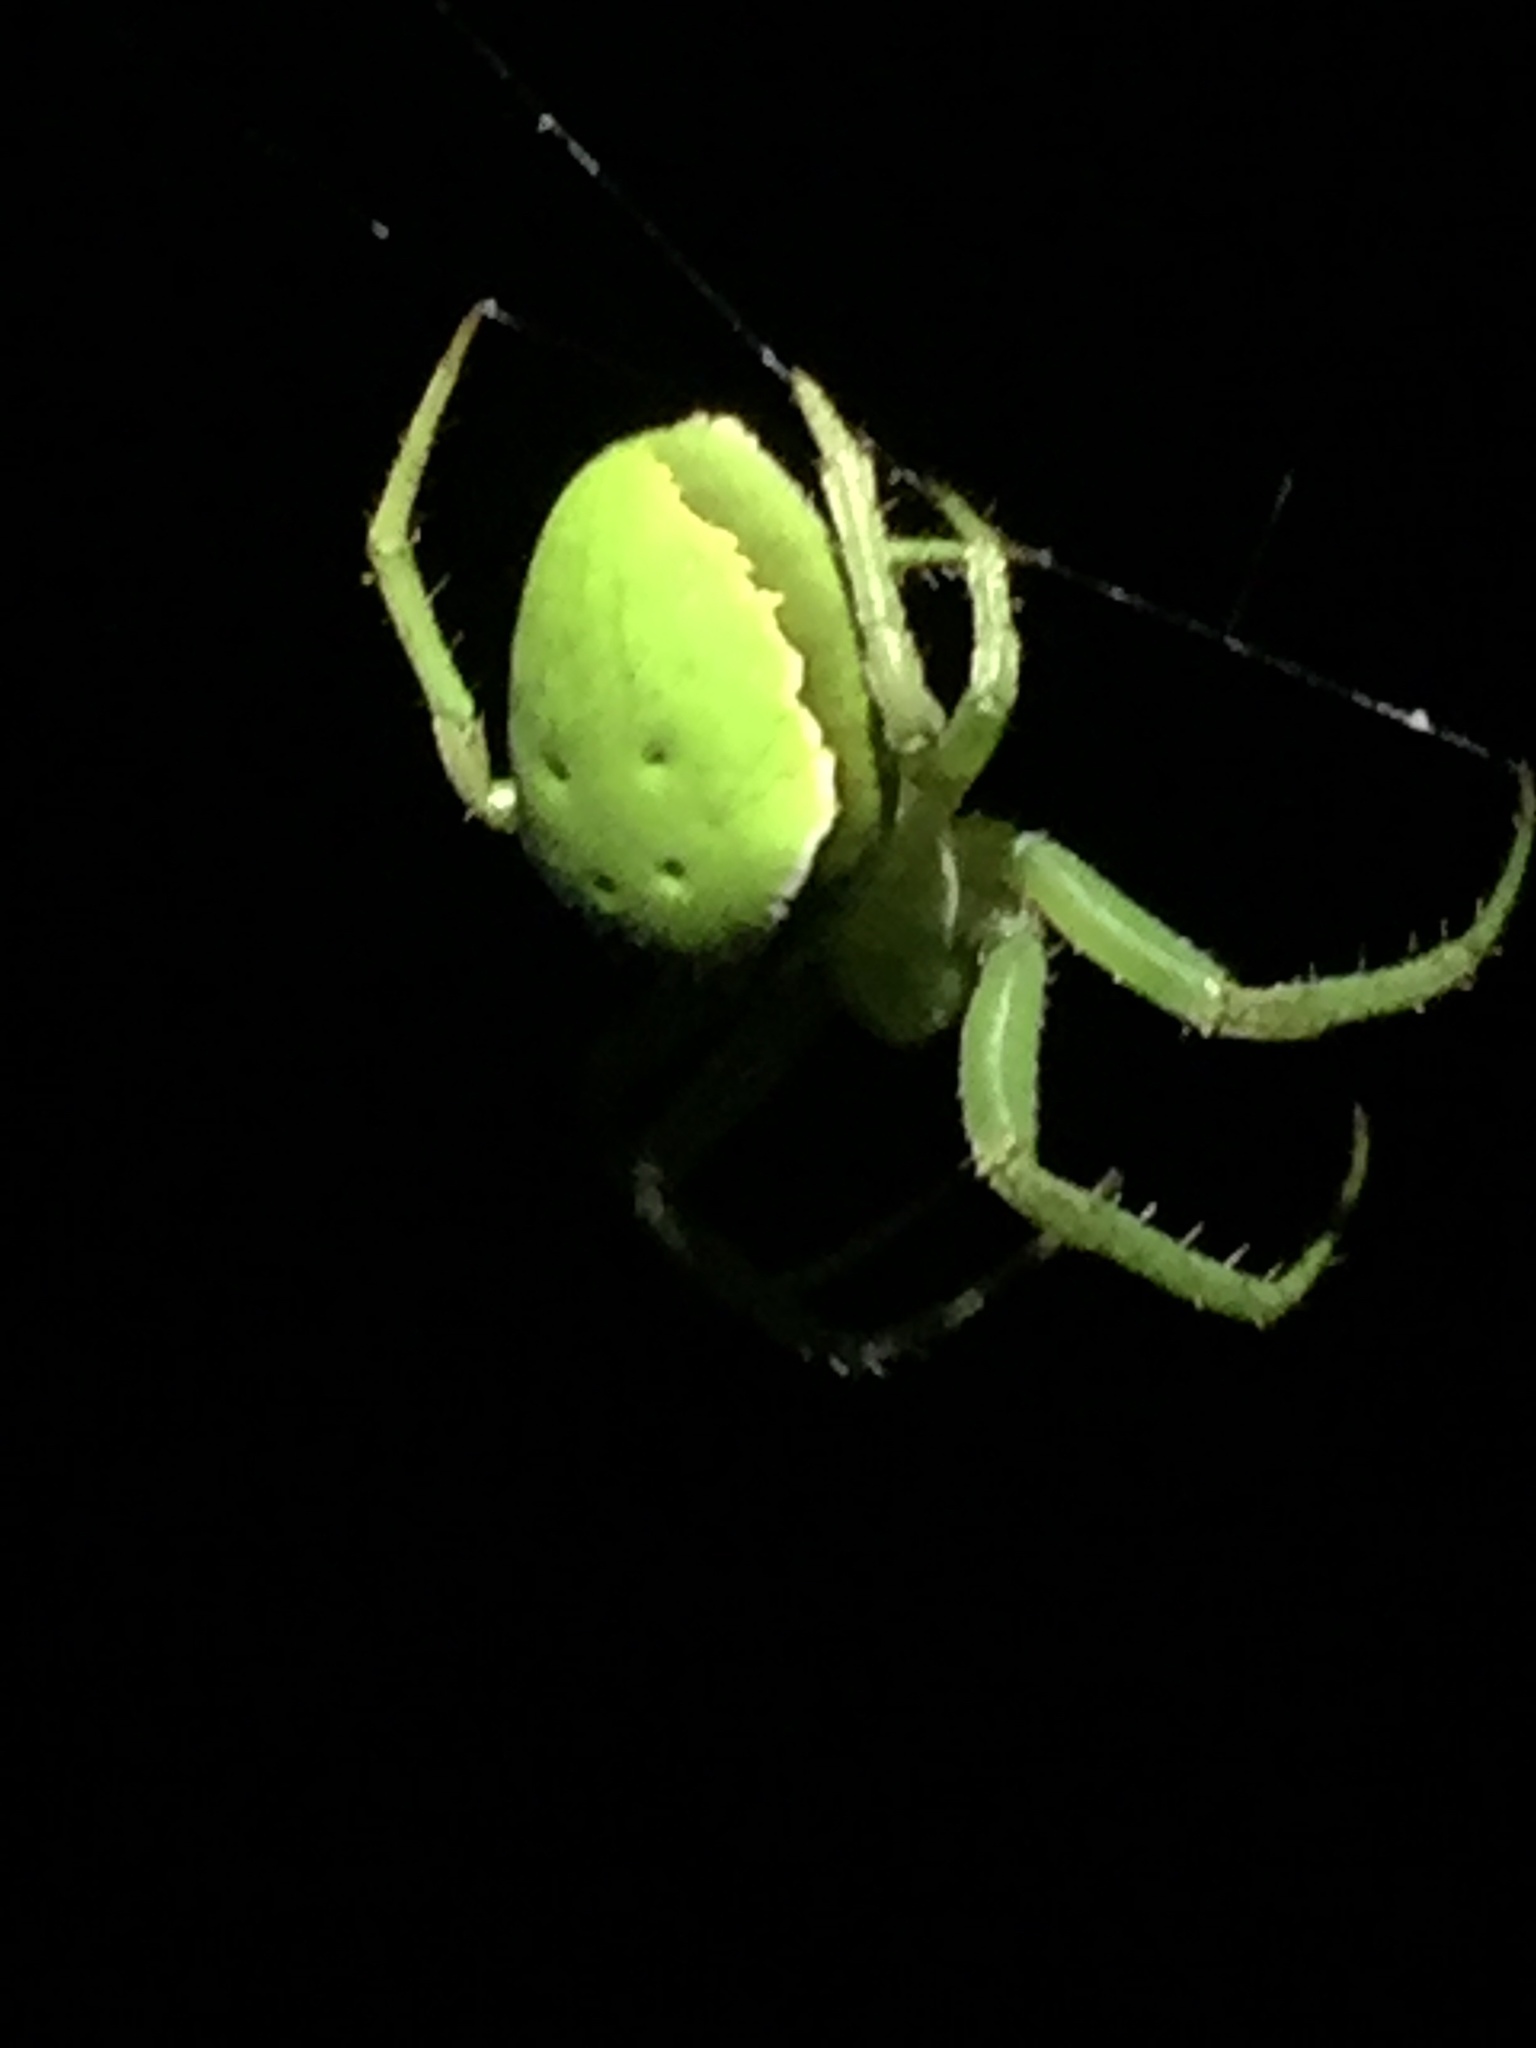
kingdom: Animalia
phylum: Arthropoda
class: Arachnida
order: Araneae
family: Araneidae
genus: Colaranea
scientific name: Colaranea viriditas
